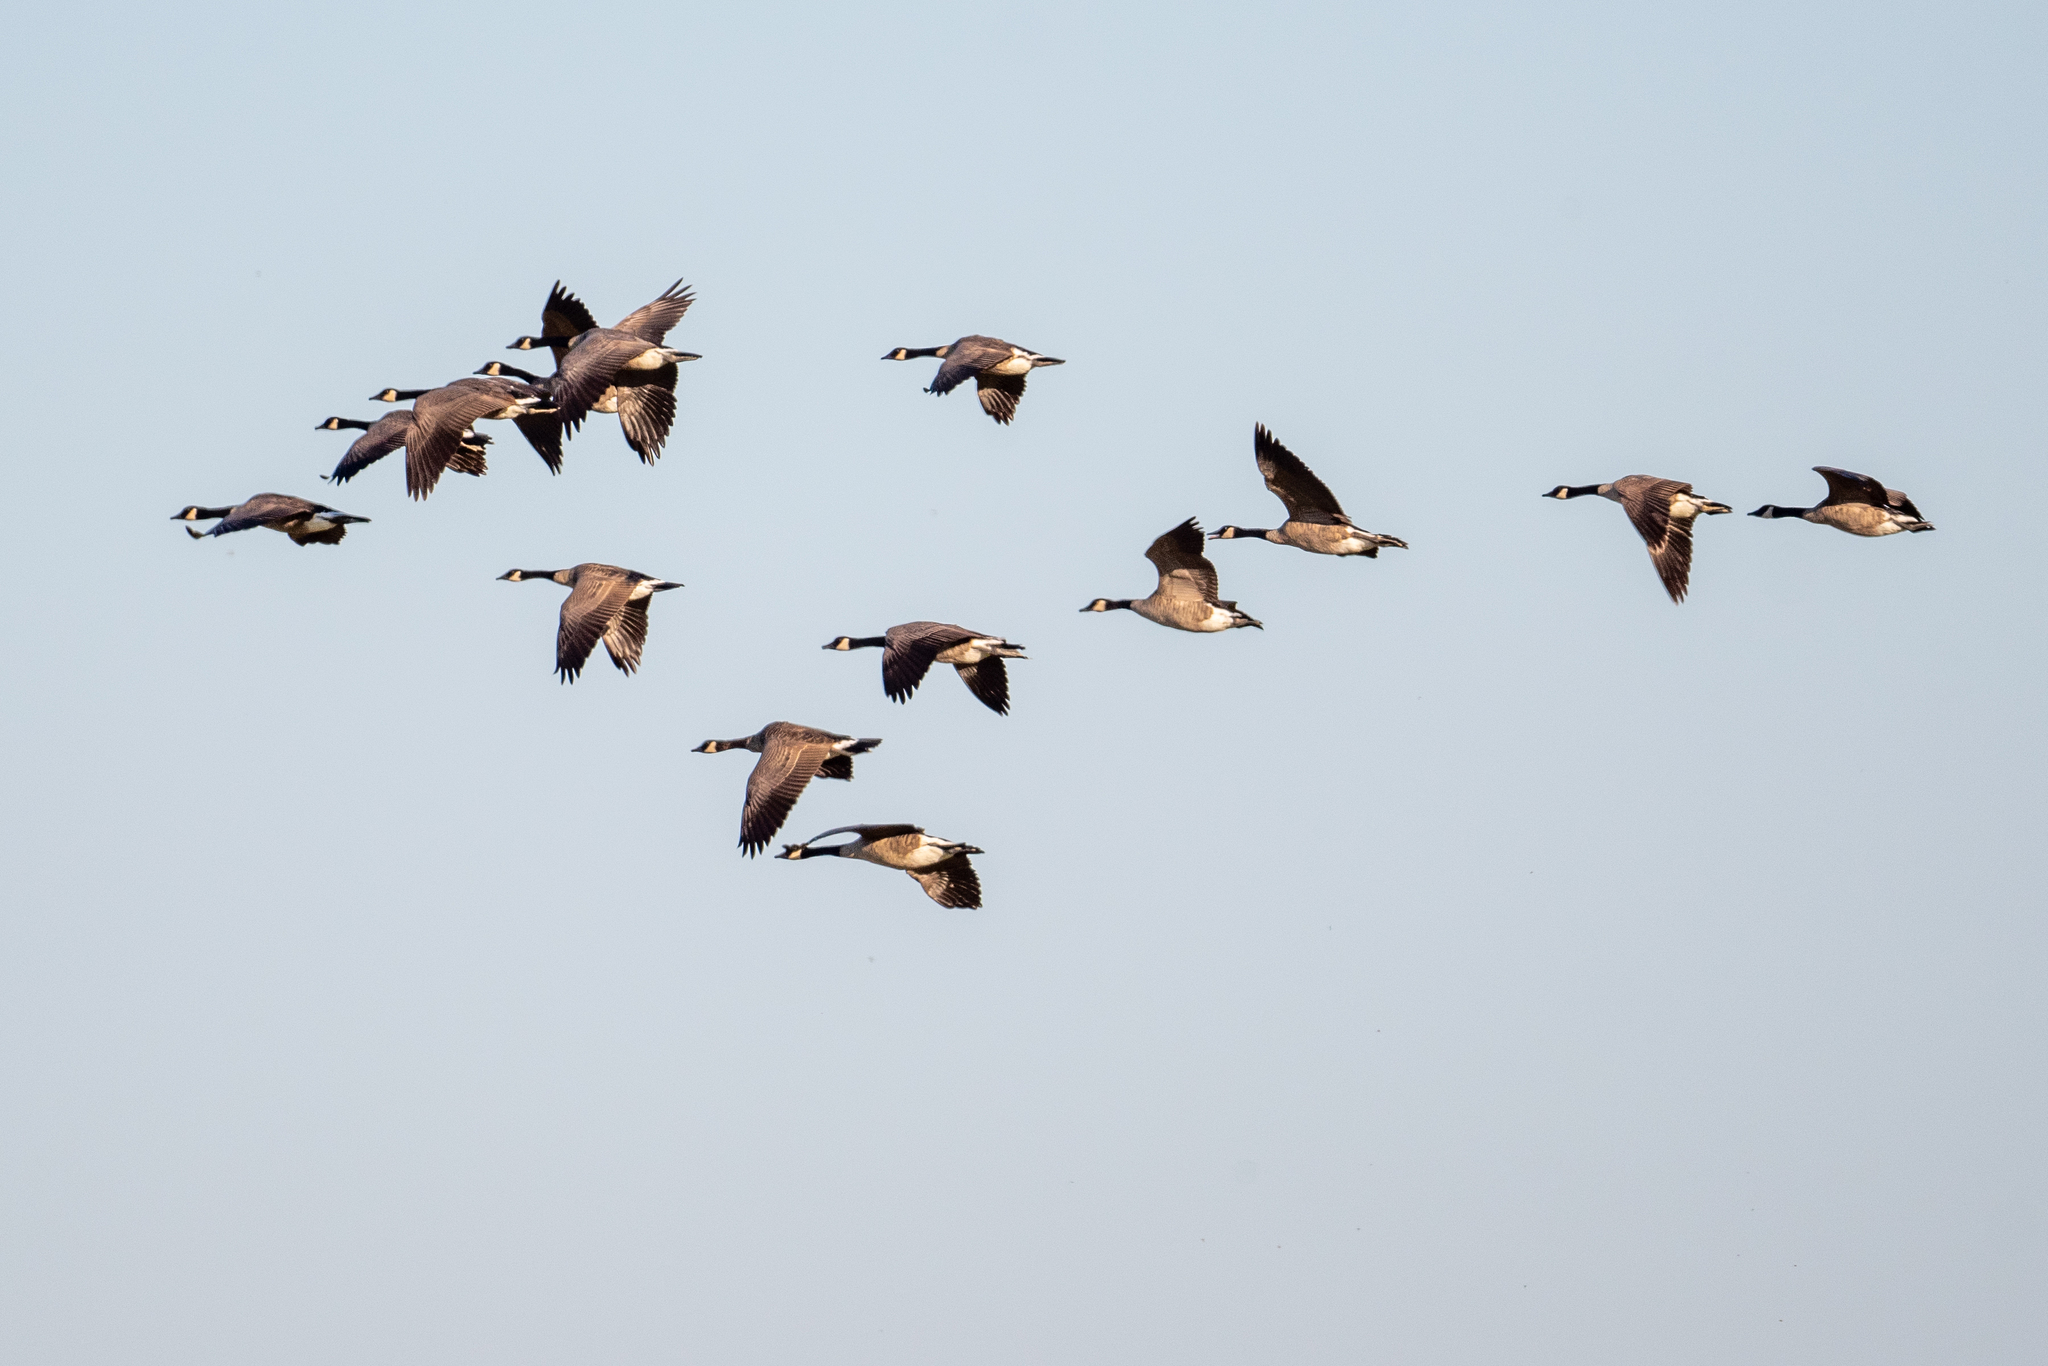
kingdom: Animalia
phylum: Chordata
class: Aves
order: Anseriformes
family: Anatidae
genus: Branta
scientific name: Branta canadensis
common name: Canada goose
